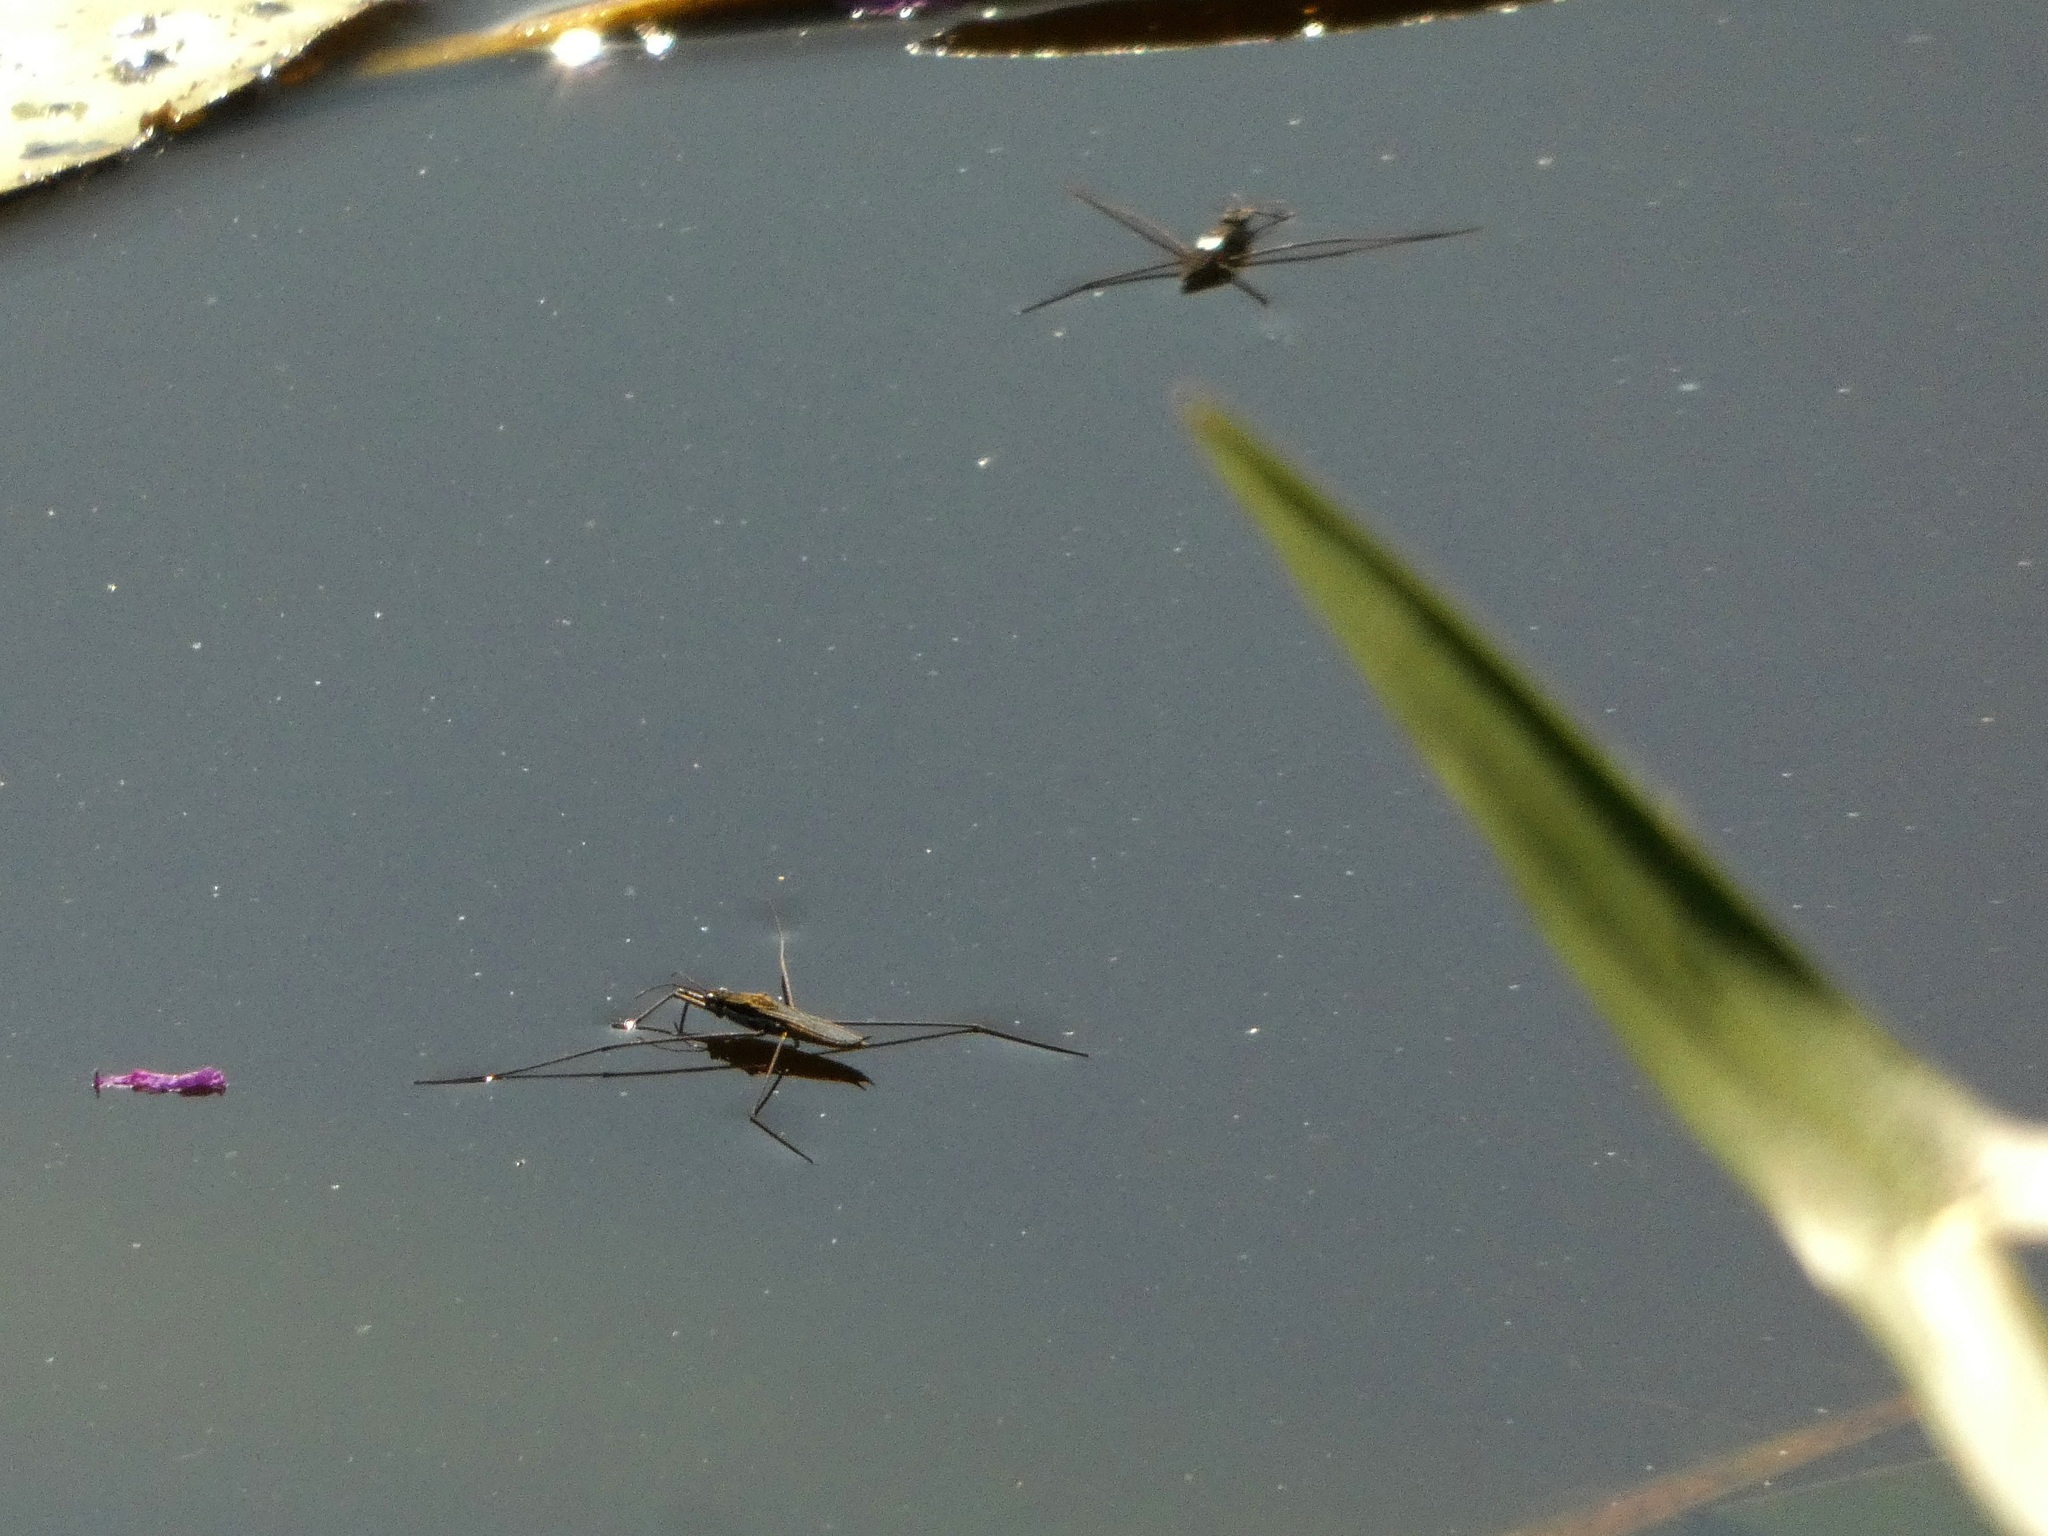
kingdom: Animalia
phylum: Arthropoda
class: Insecta
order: Hemiptera
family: Gerridae
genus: Aquarius
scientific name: Aquarius paludum
